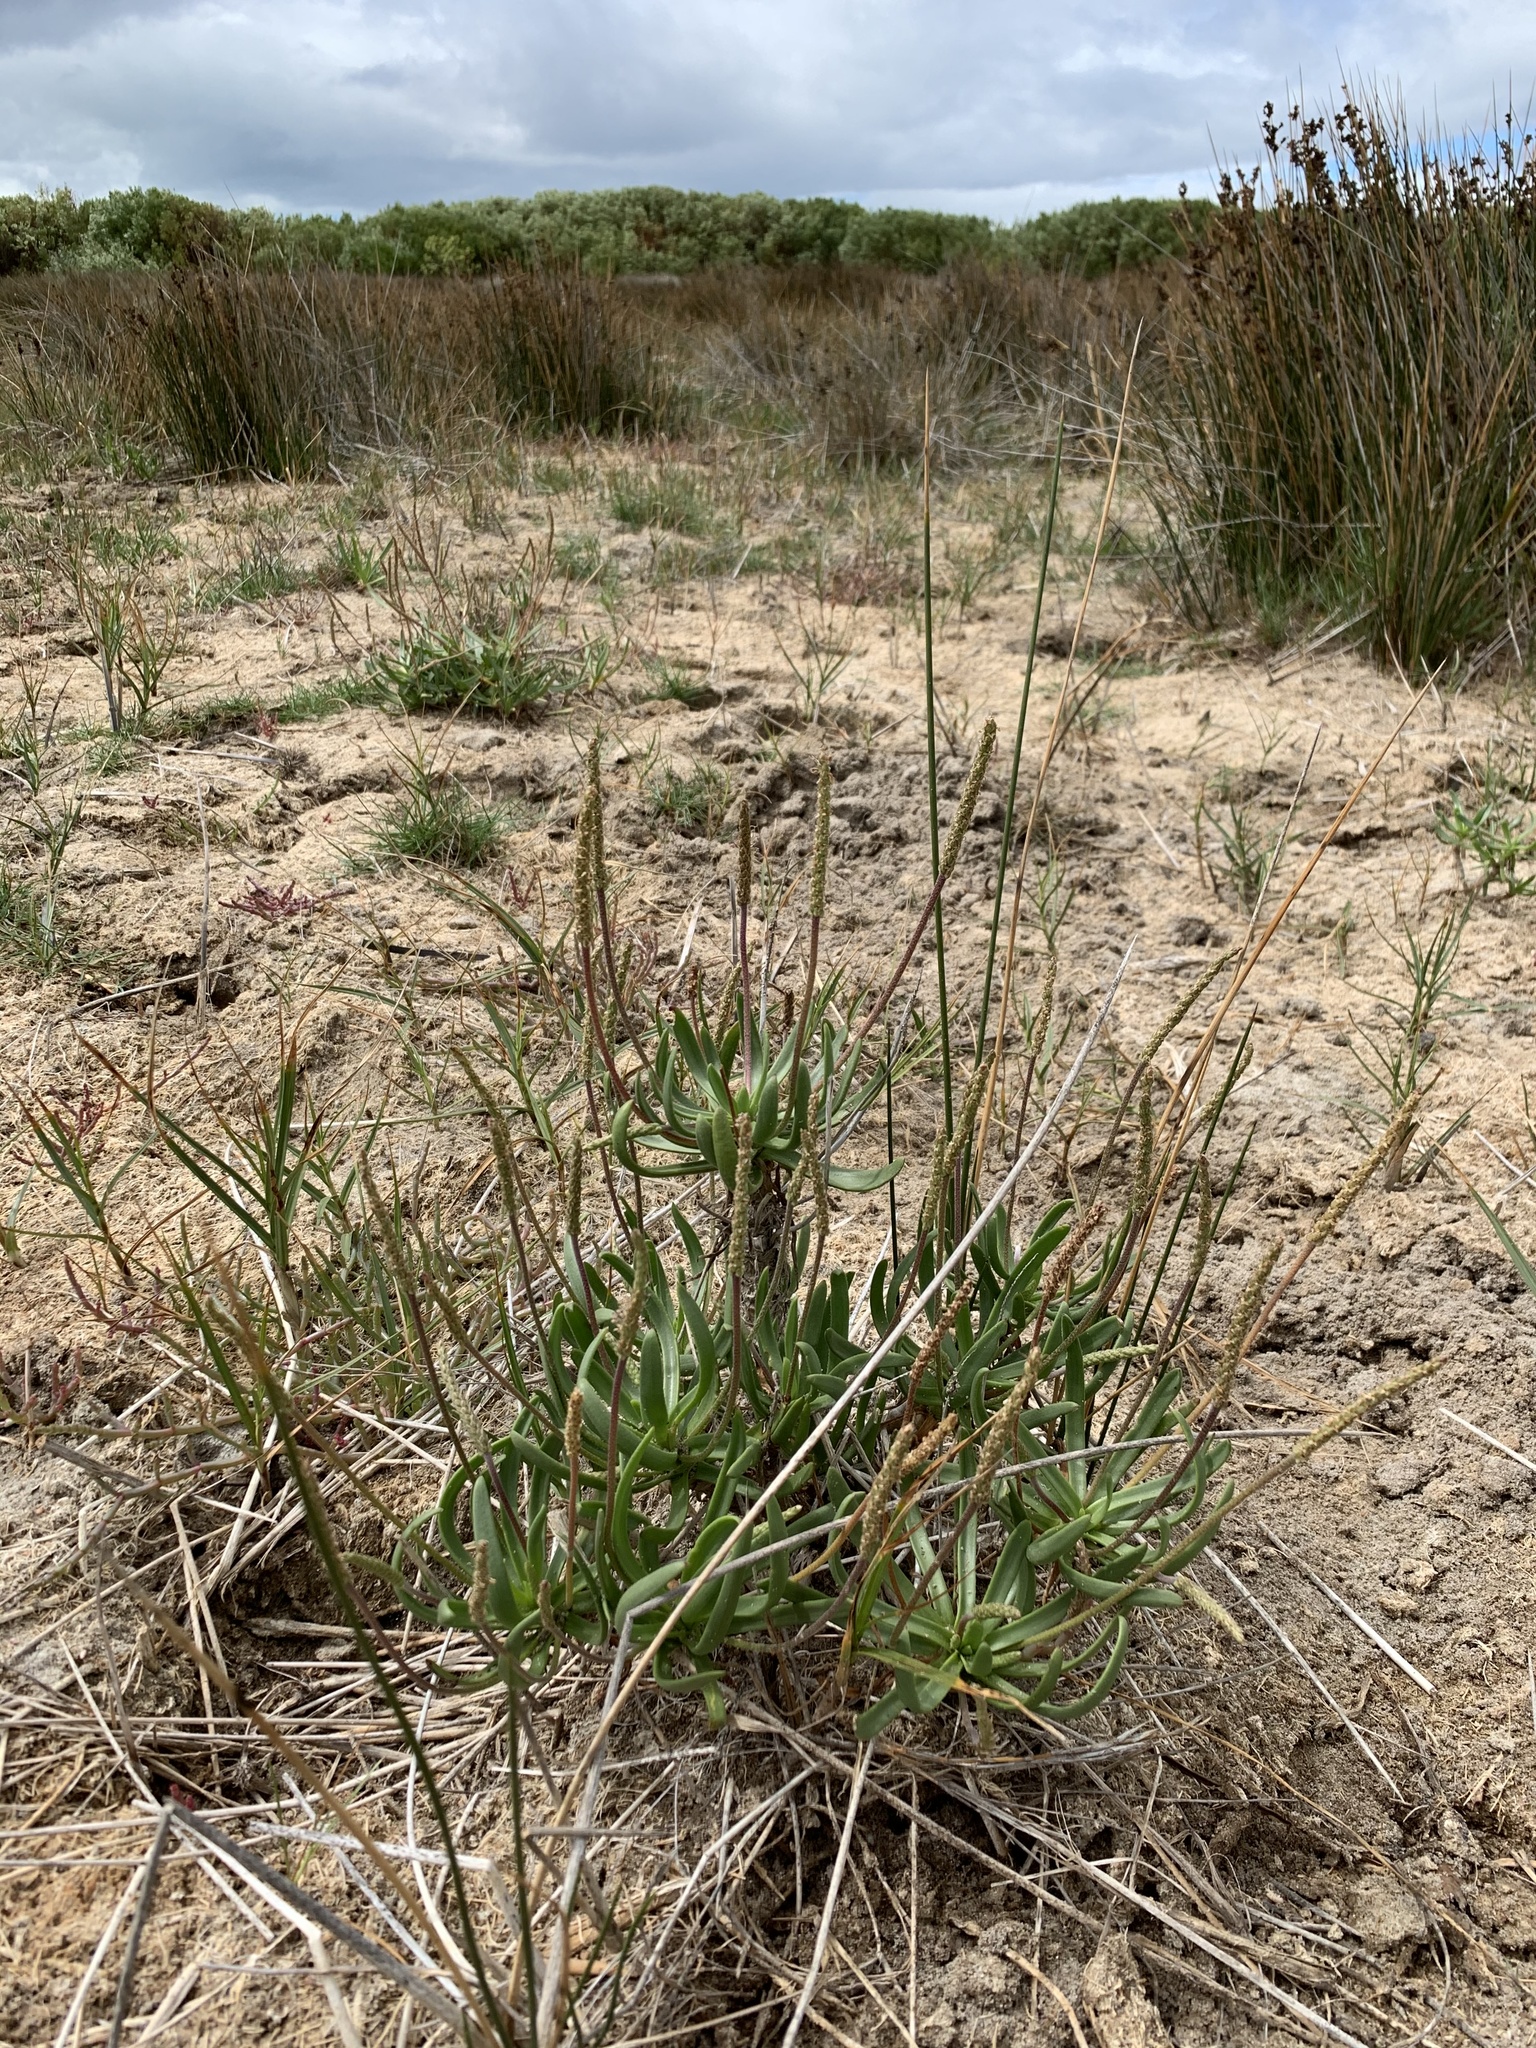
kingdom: Plantae
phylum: Tracheophyta
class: Magnoliopsida
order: Lamiales
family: Plantaginaceae
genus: Plantago
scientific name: Plantago carnosa
